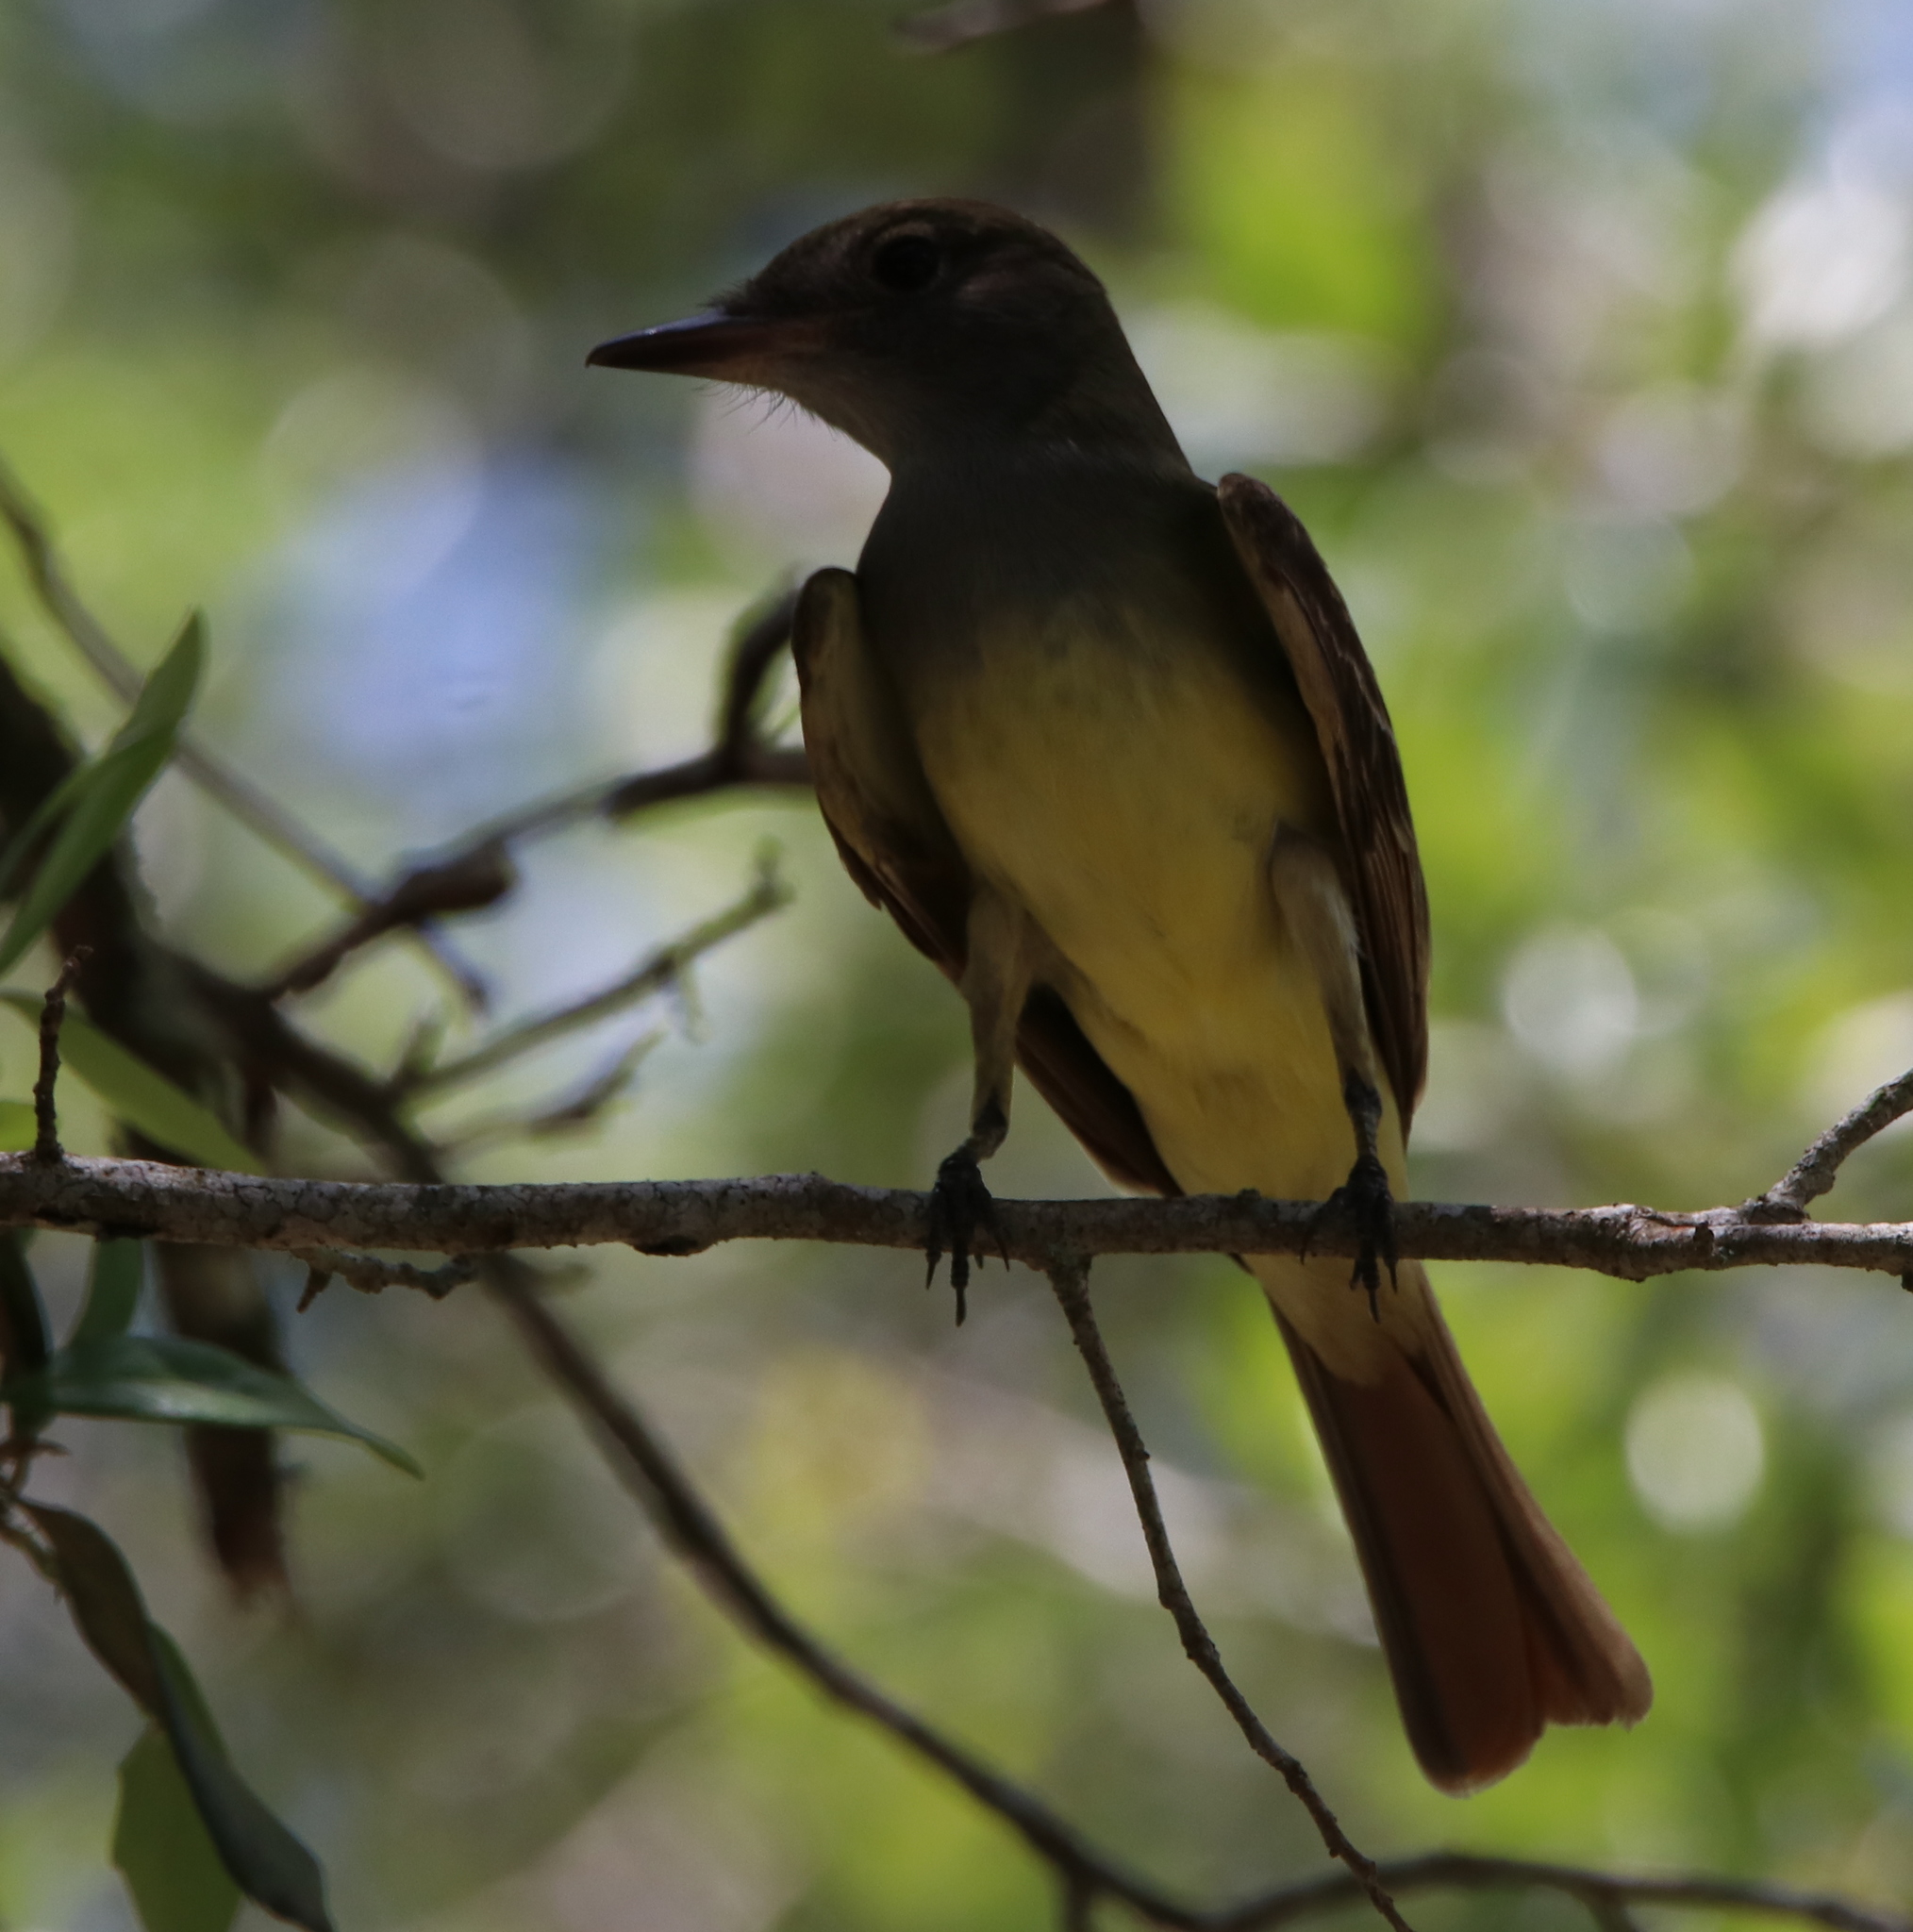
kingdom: Animalia
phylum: Chordata
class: Aves
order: Passeriformes
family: Tyrannidae
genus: Myiarchus
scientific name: Myiarchus crinitus
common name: Great crested flycatcher
